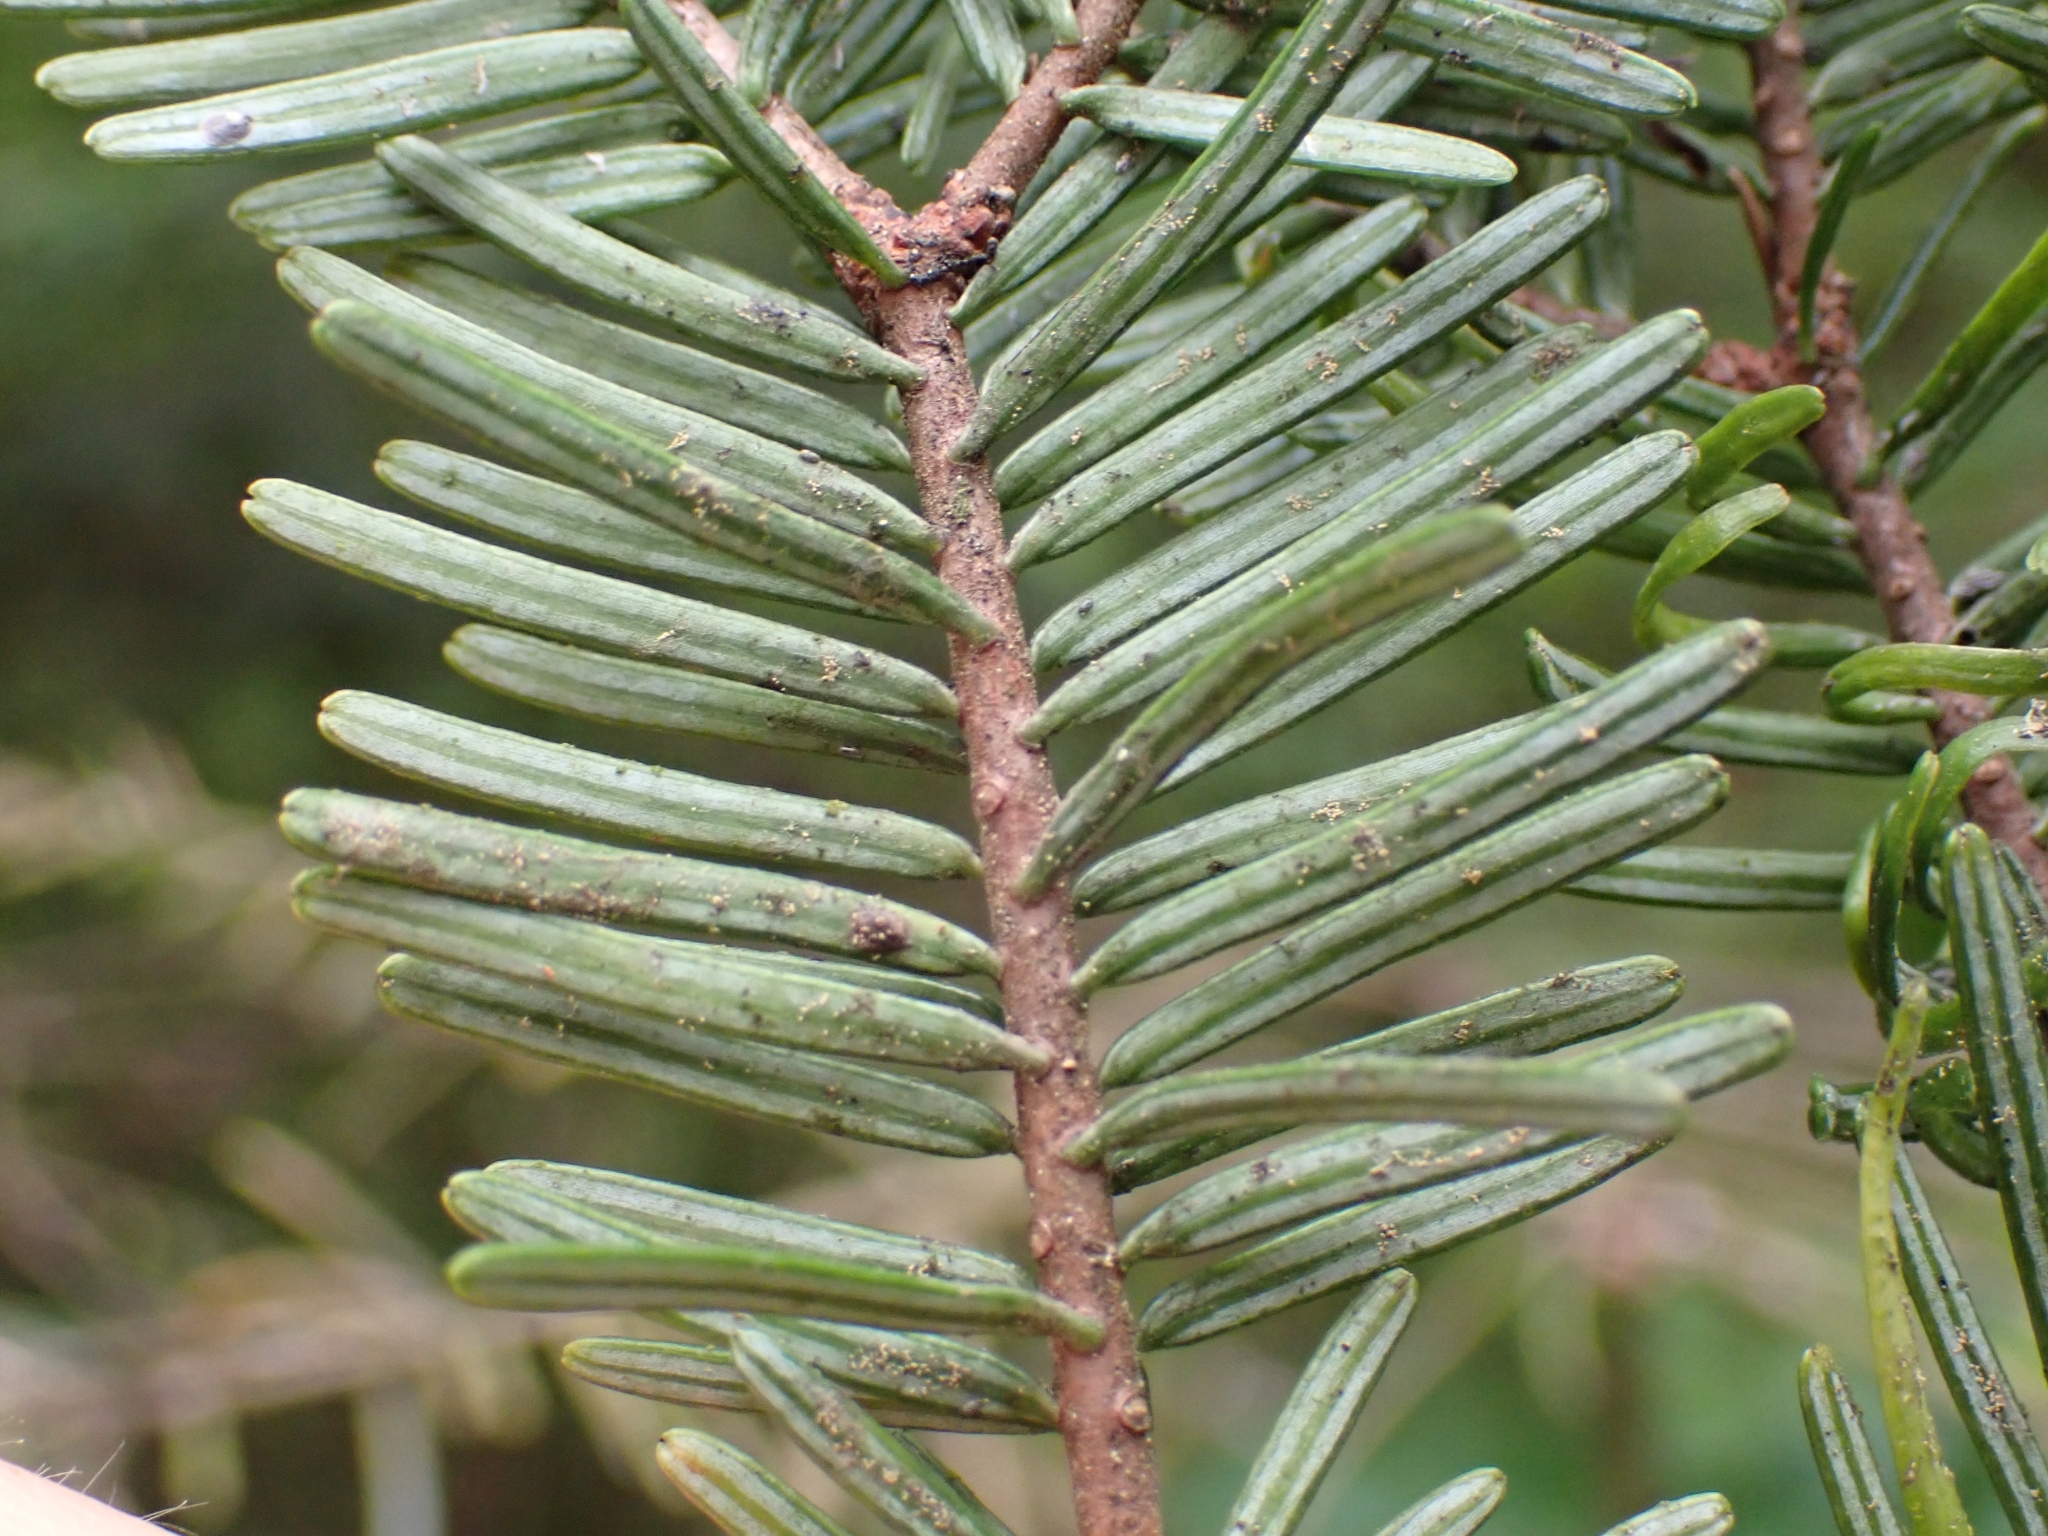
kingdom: Plantae
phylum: Tracheophyta
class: Pinopsida
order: Pinales
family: Pinaceae
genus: Abies
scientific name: Abies grandis
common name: Giant fir
